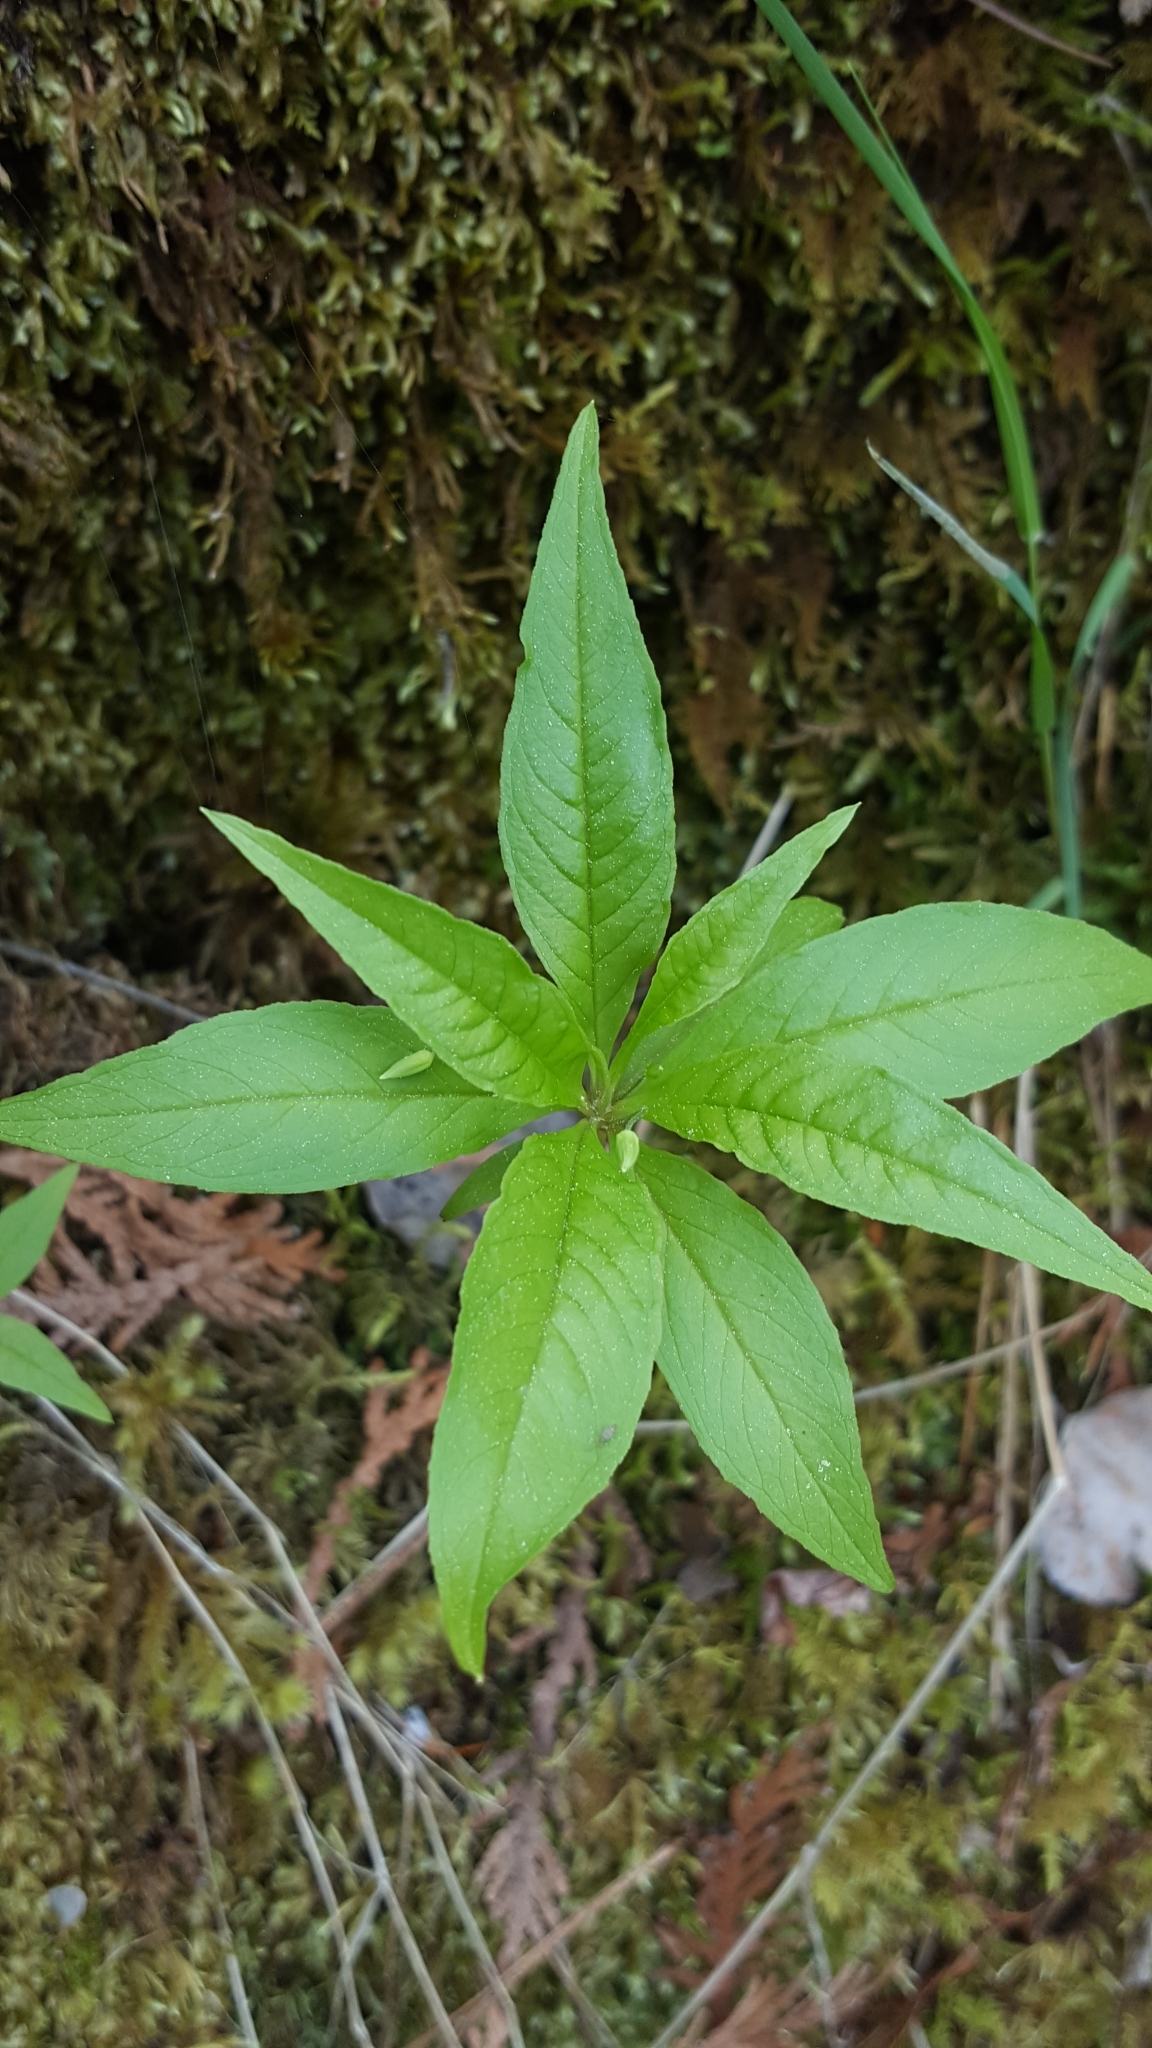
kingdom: Plantae
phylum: Tracheophyta
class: Magnoliopsida
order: Ericales
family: Primulaceae
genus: Lysimachia
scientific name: Lysimachia borealis
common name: American starflower
